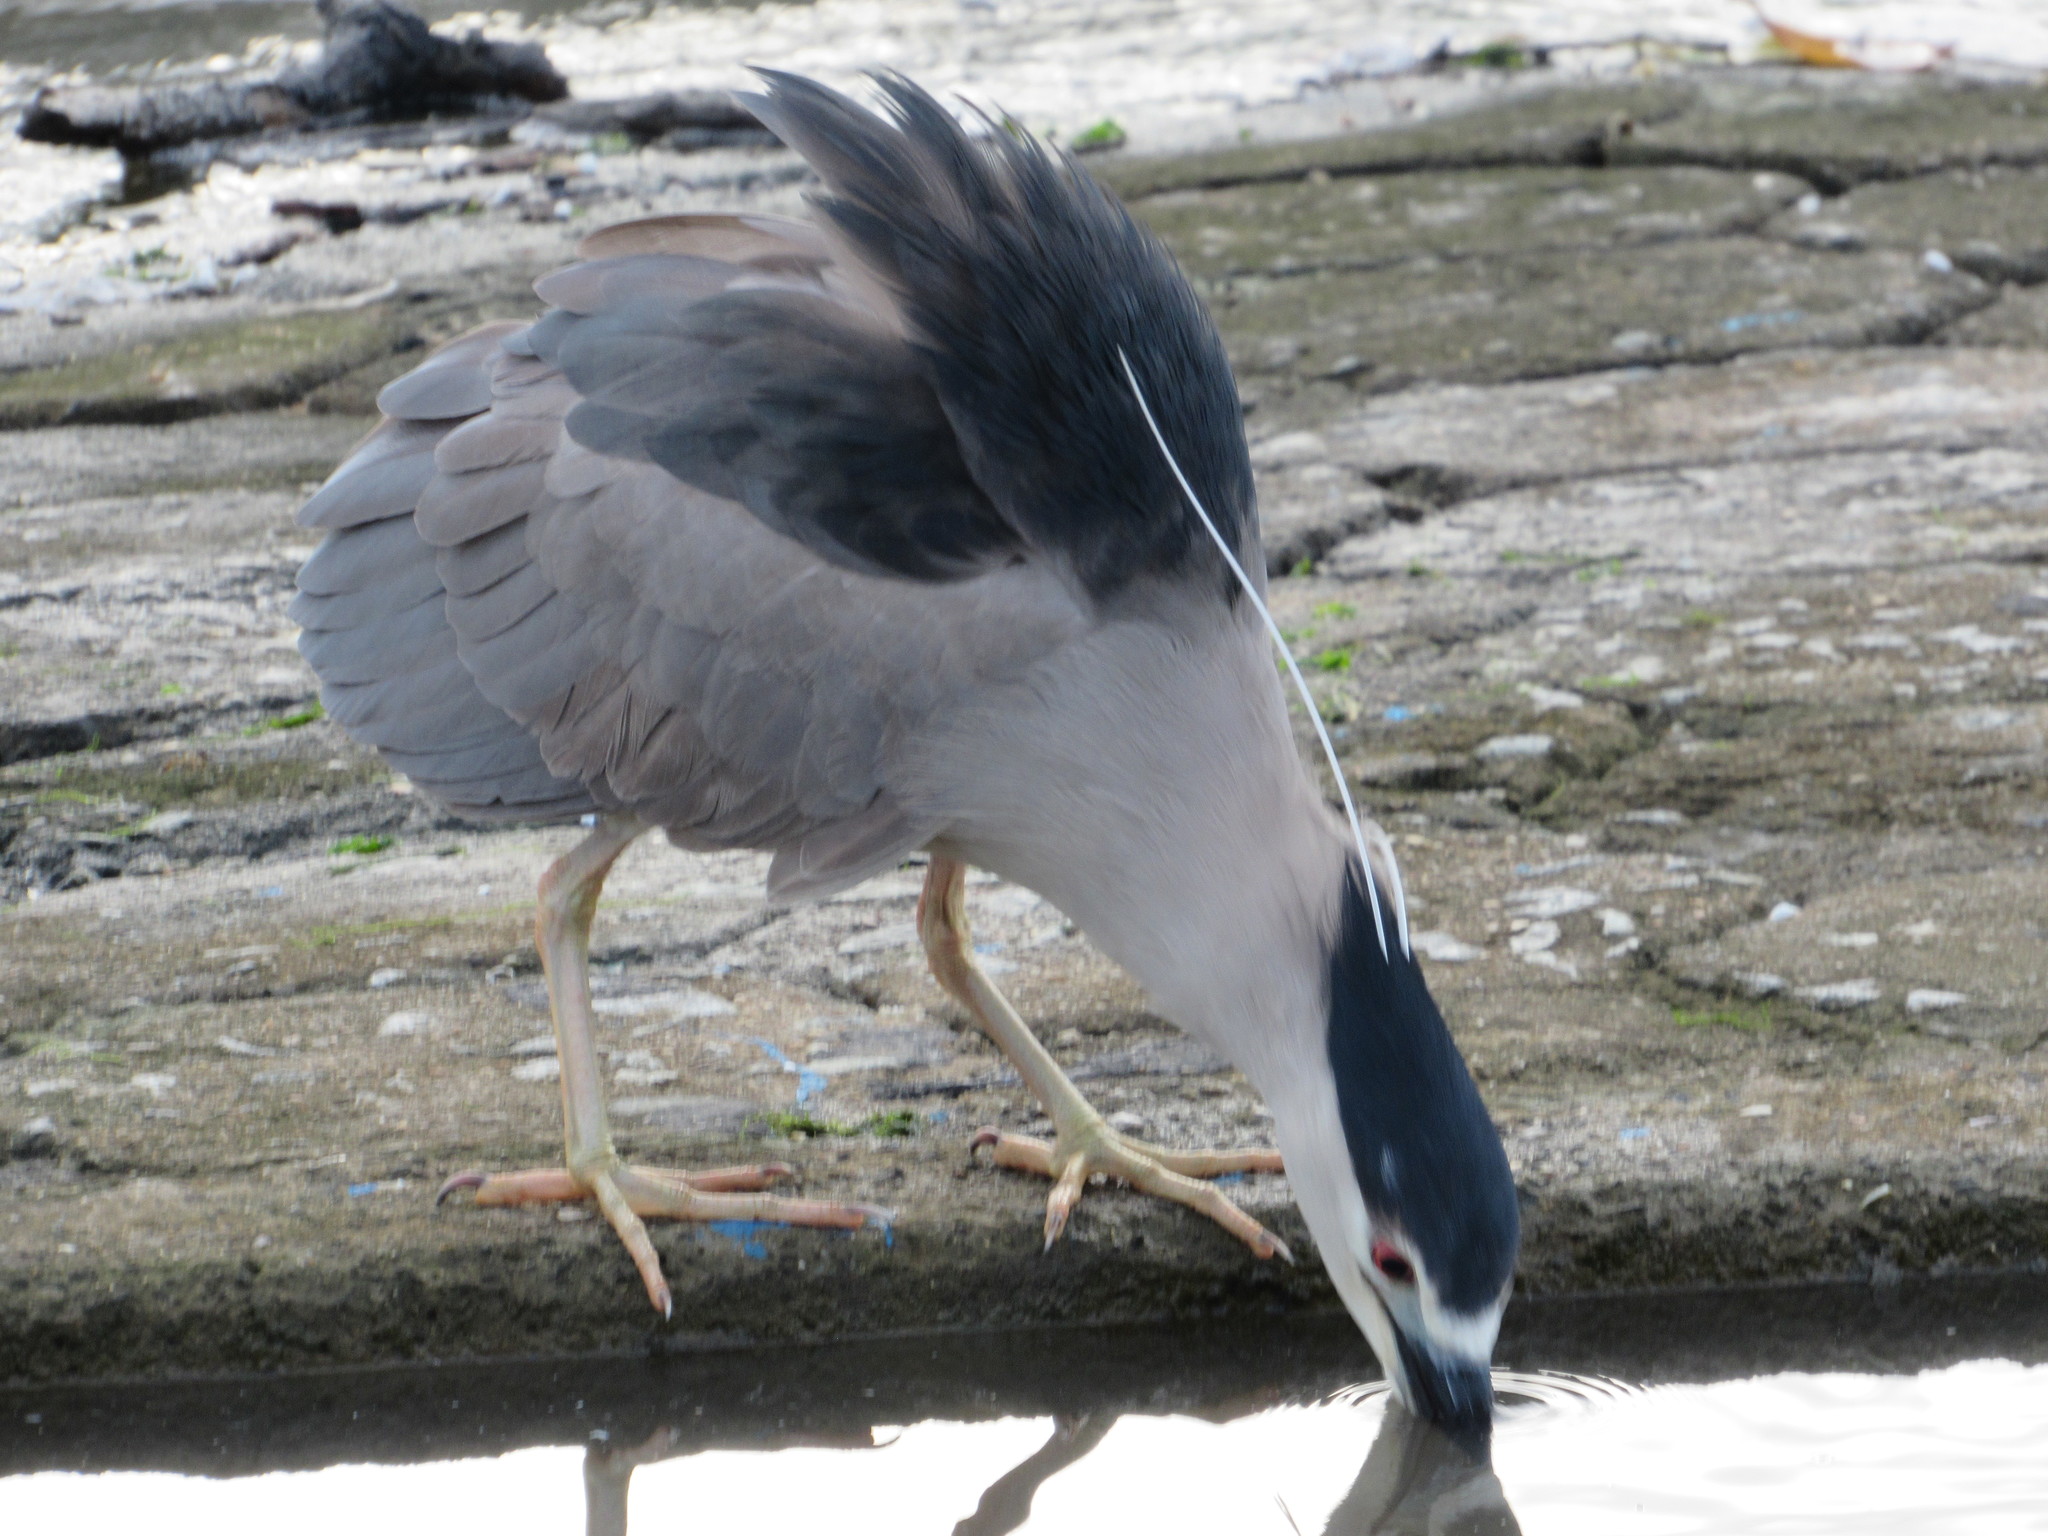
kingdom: Animalia
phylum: Chordata
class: Aves
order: Pelecaniformes
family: Ardeidae
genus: Nycticorax
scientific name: Nycticorax nycticorax
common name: Black-crowned night heron
